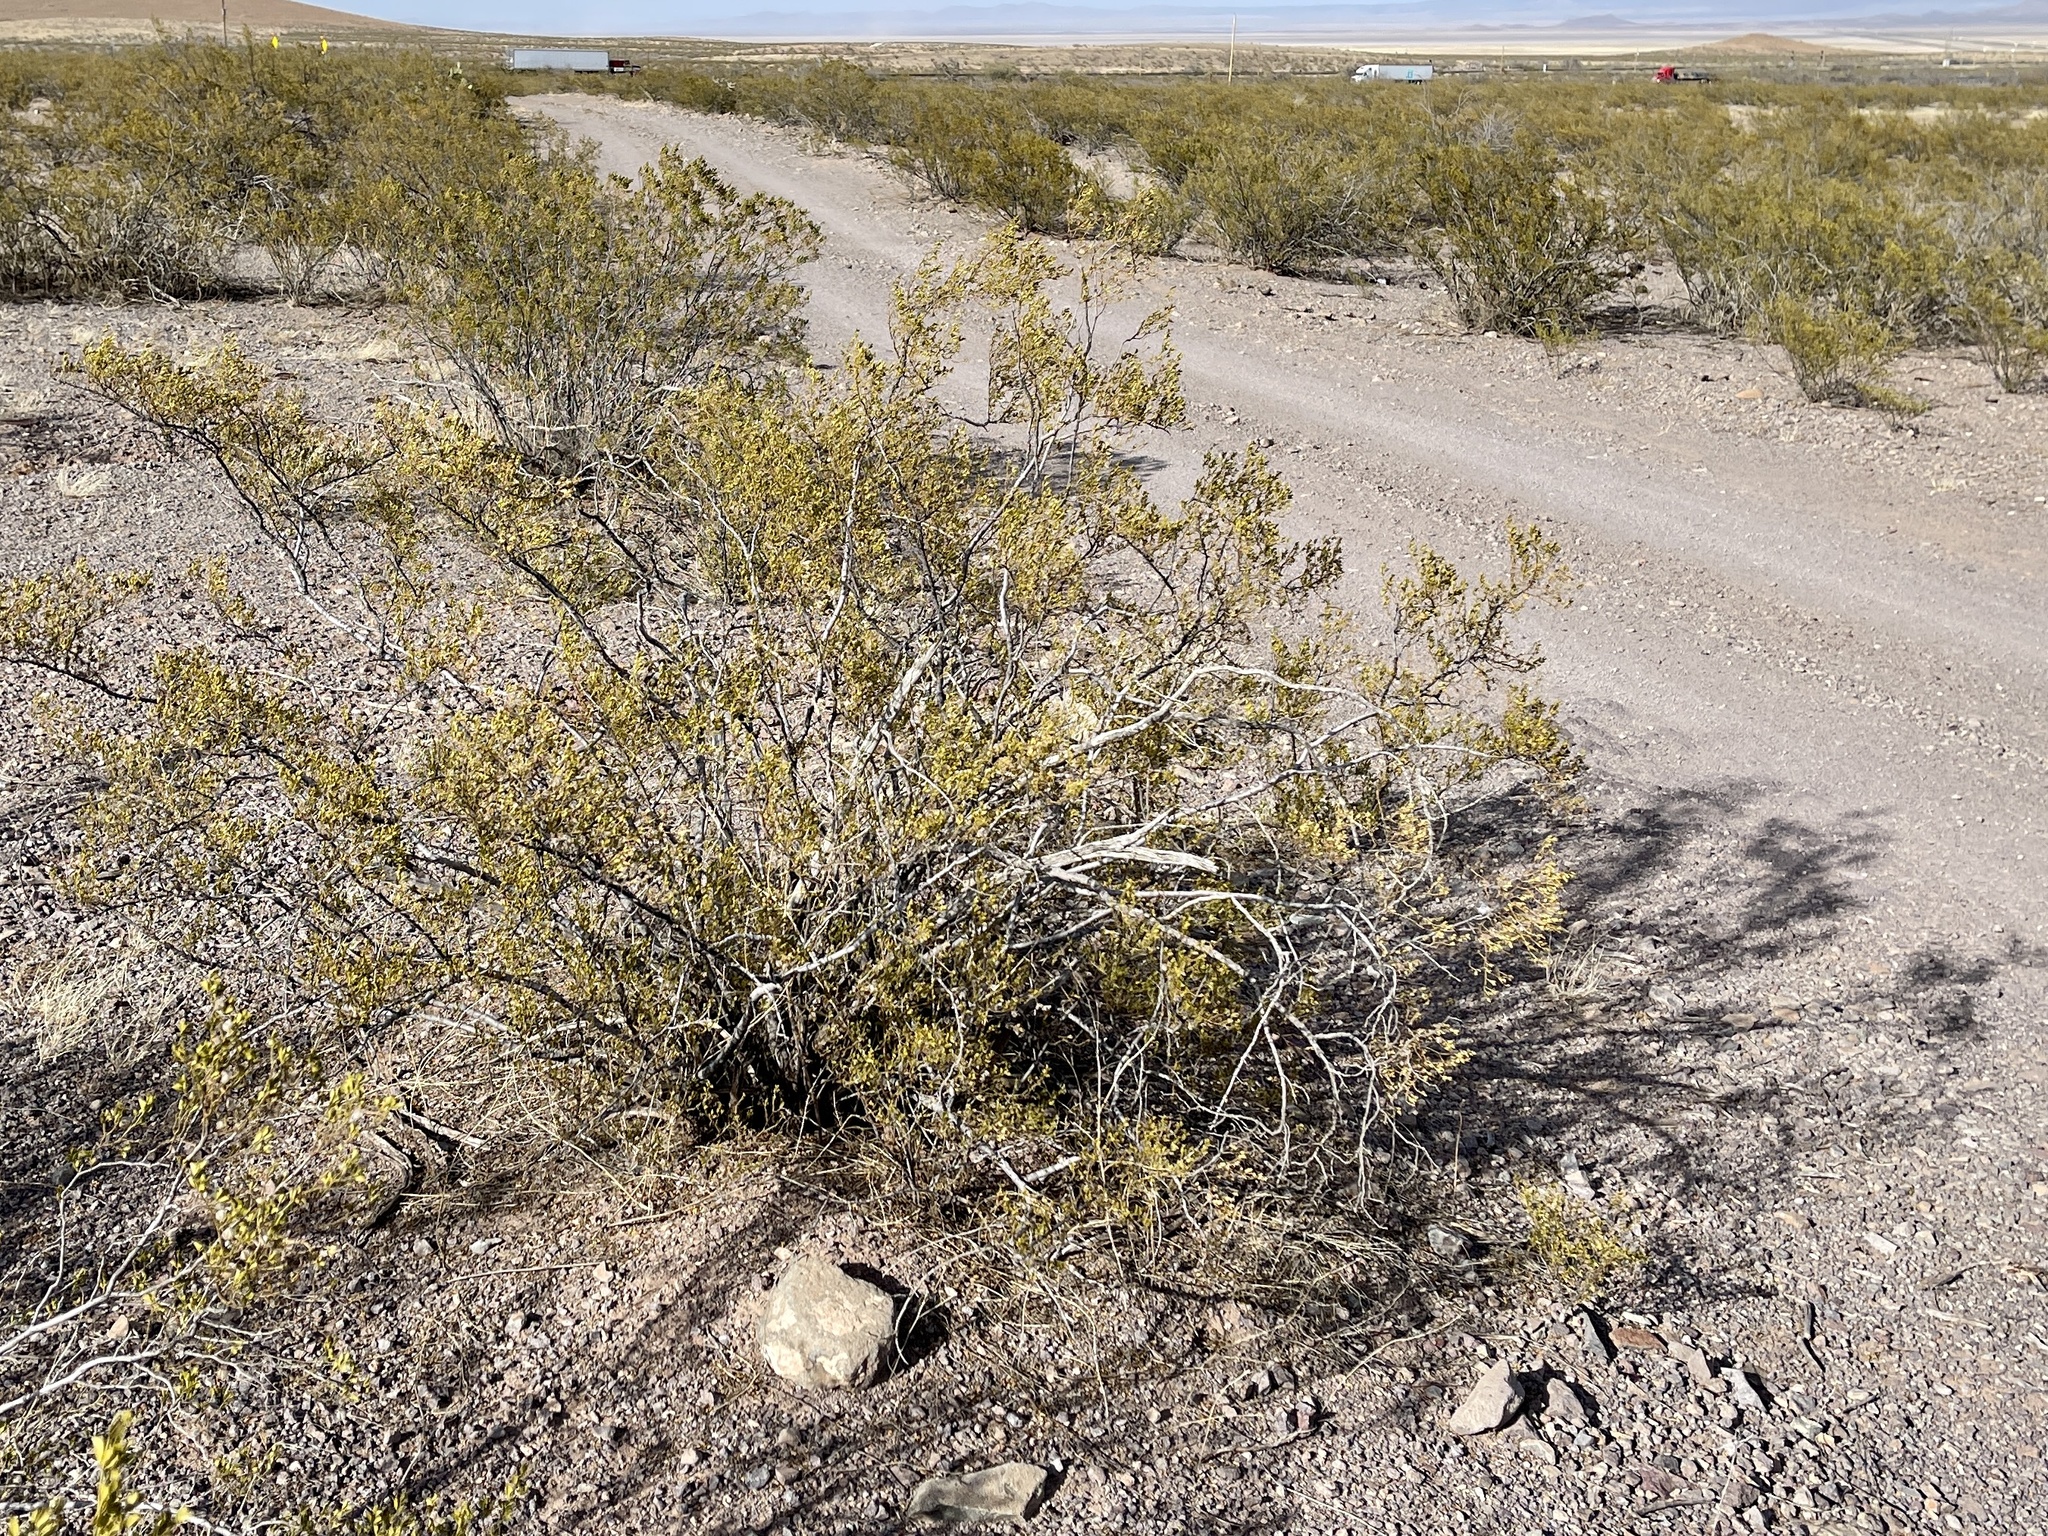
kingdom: Plantae
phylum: Tracheophyta
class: Magnoliopsida
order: Zygophyllales
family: Zygophyllaceae
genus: Larrea
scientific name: Larrea tridentata
